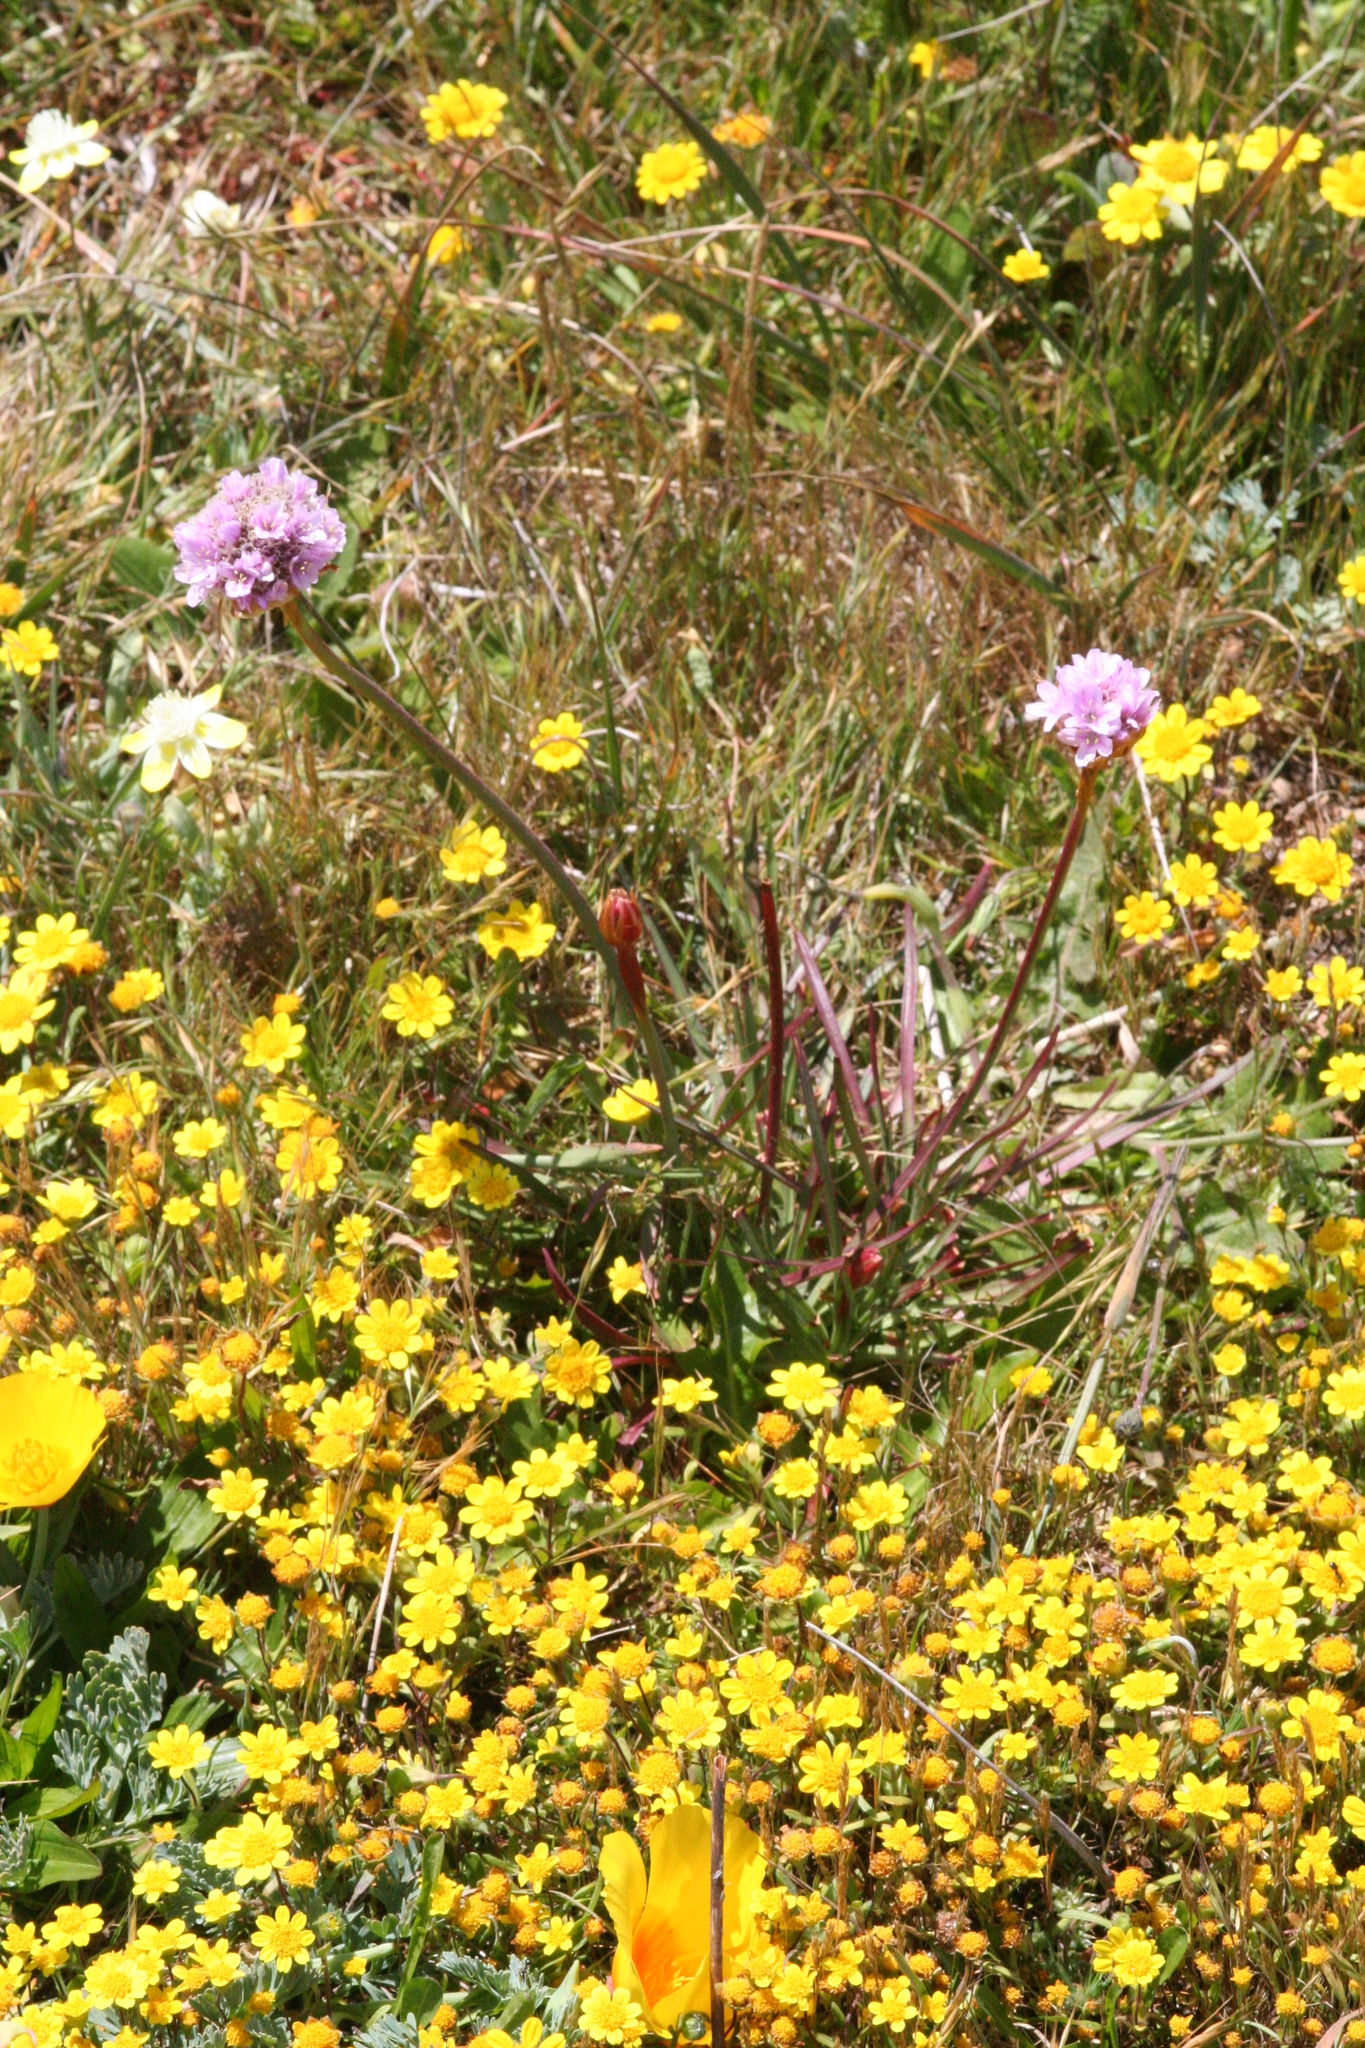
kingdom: Plantae
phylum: Tracheophyta
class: Magnoliopsida
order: Caryophyllales
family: Plumbaginaceae
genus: Armeria
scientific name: Armeria maritima
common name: Thrift
